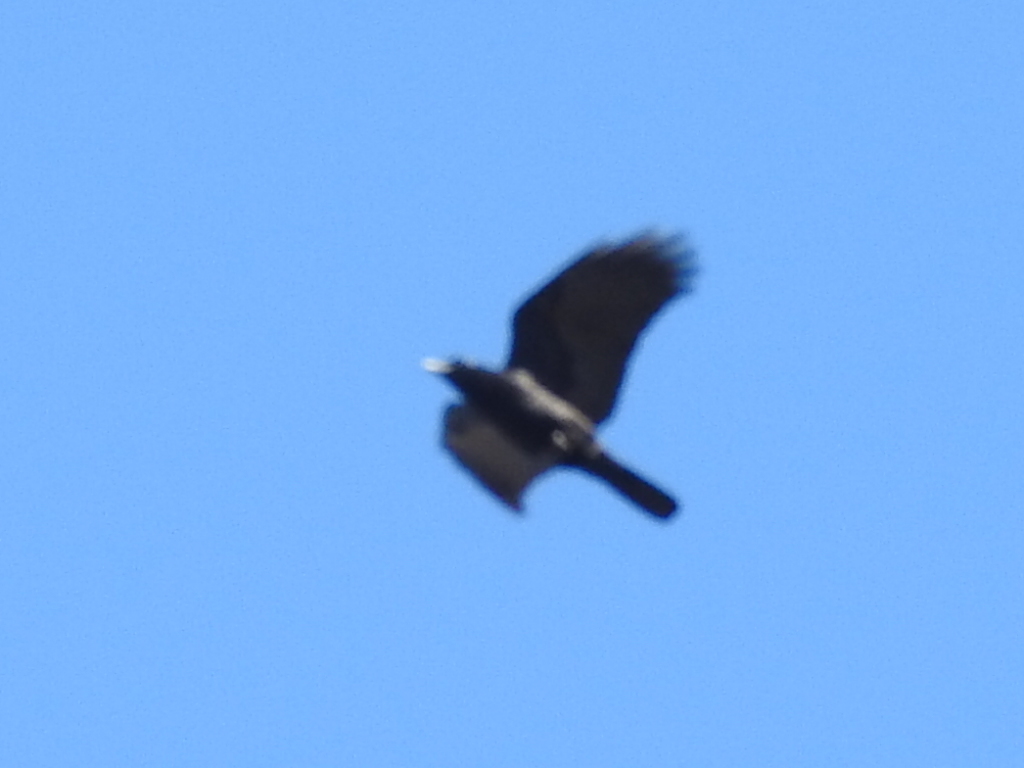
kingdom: Animalia
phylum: Chordata
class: Aves
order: Passeriformes
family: Corvidae
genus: Corvus
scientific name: Corvus brachyrhynchos
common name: American crow
